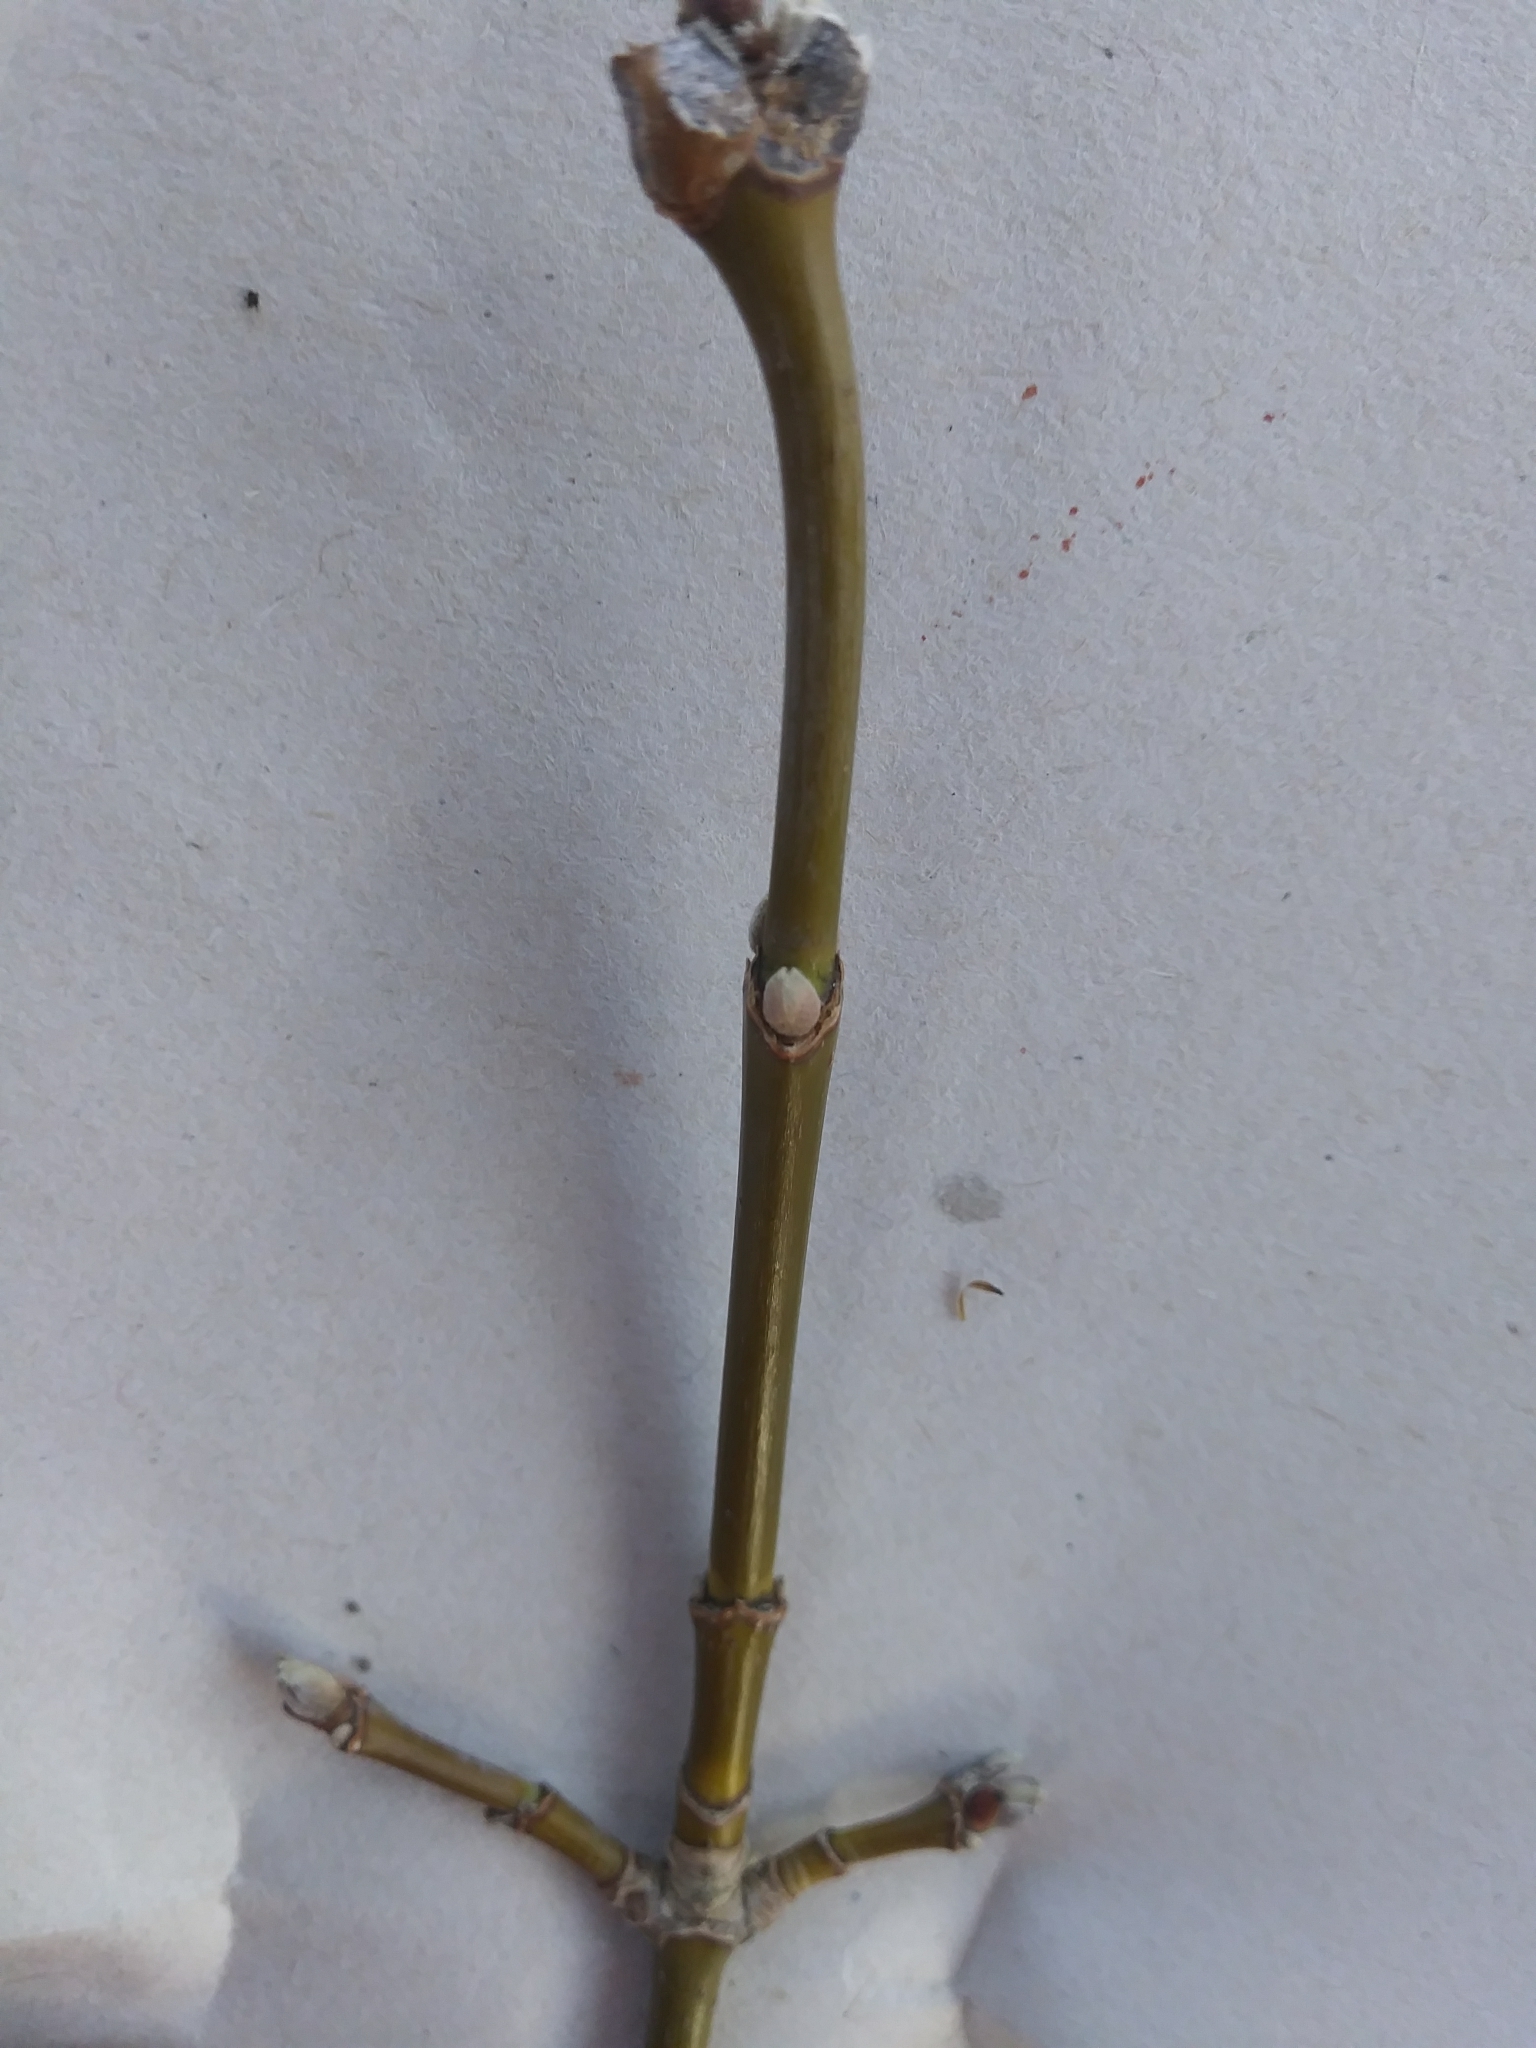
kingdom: Plantae
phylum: Tracheophyta
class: Magnoliopsida
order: Sapindales
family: Sapindaceae
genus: Acer
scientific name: Acer negundo
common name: Ashleaf maple
